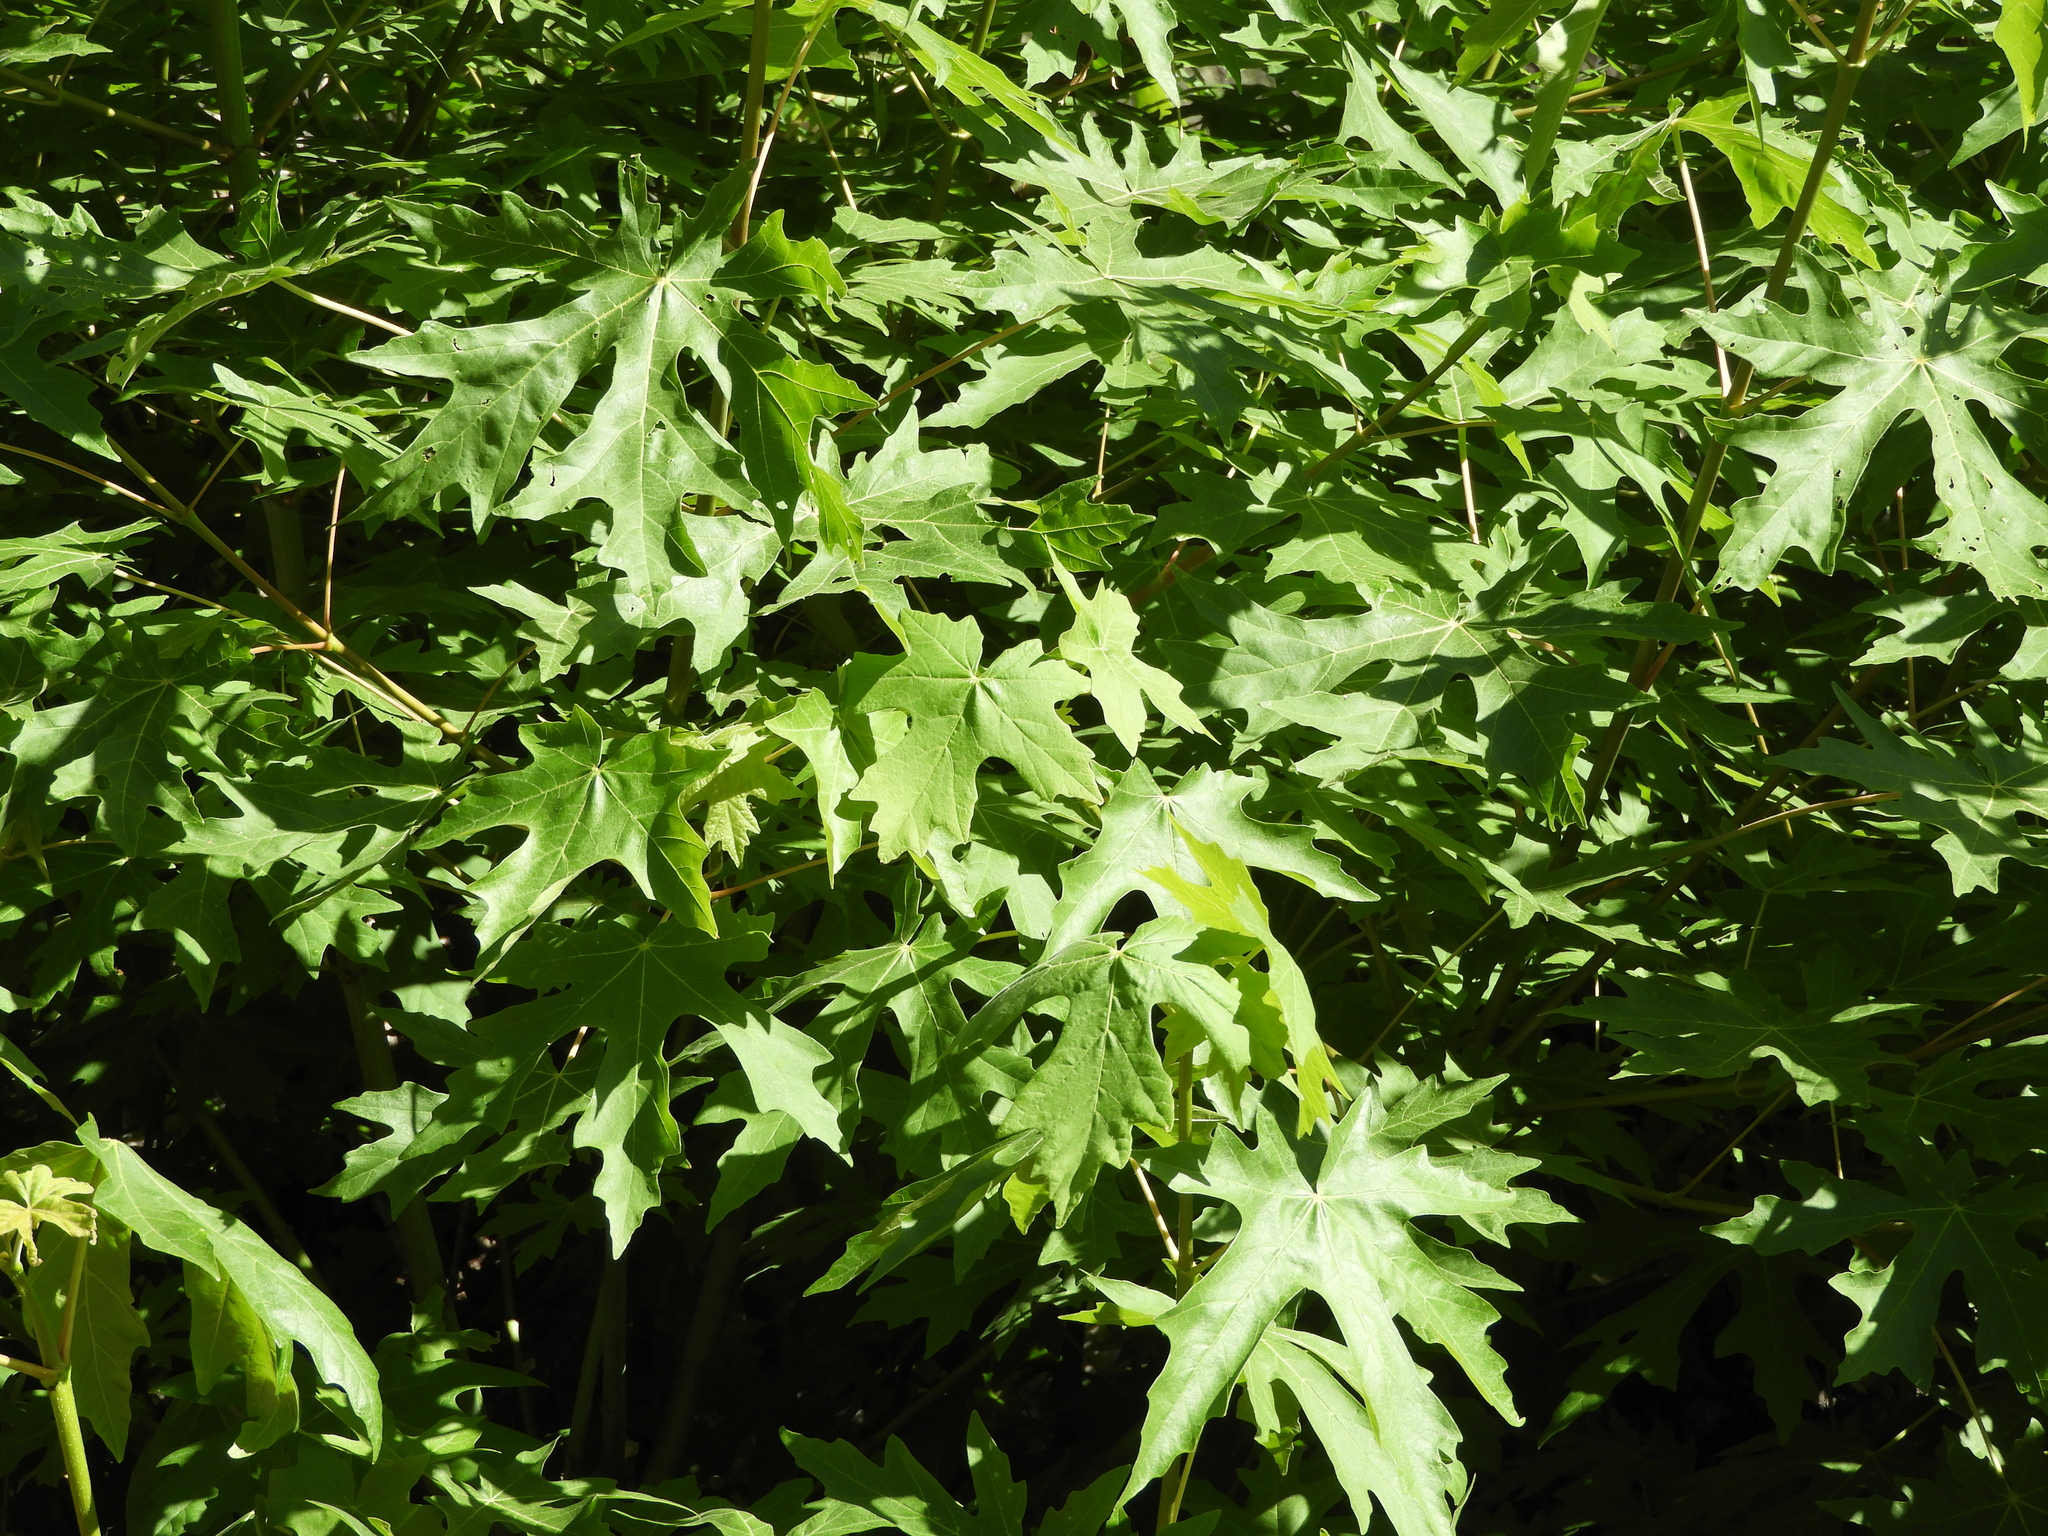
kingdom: Plantae
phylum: Tracheophyta
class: Magnoliopsida
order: Sapindales
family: Sapindaceae
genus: Acer
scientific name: Acer macrophyllum
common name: Oregon maple
